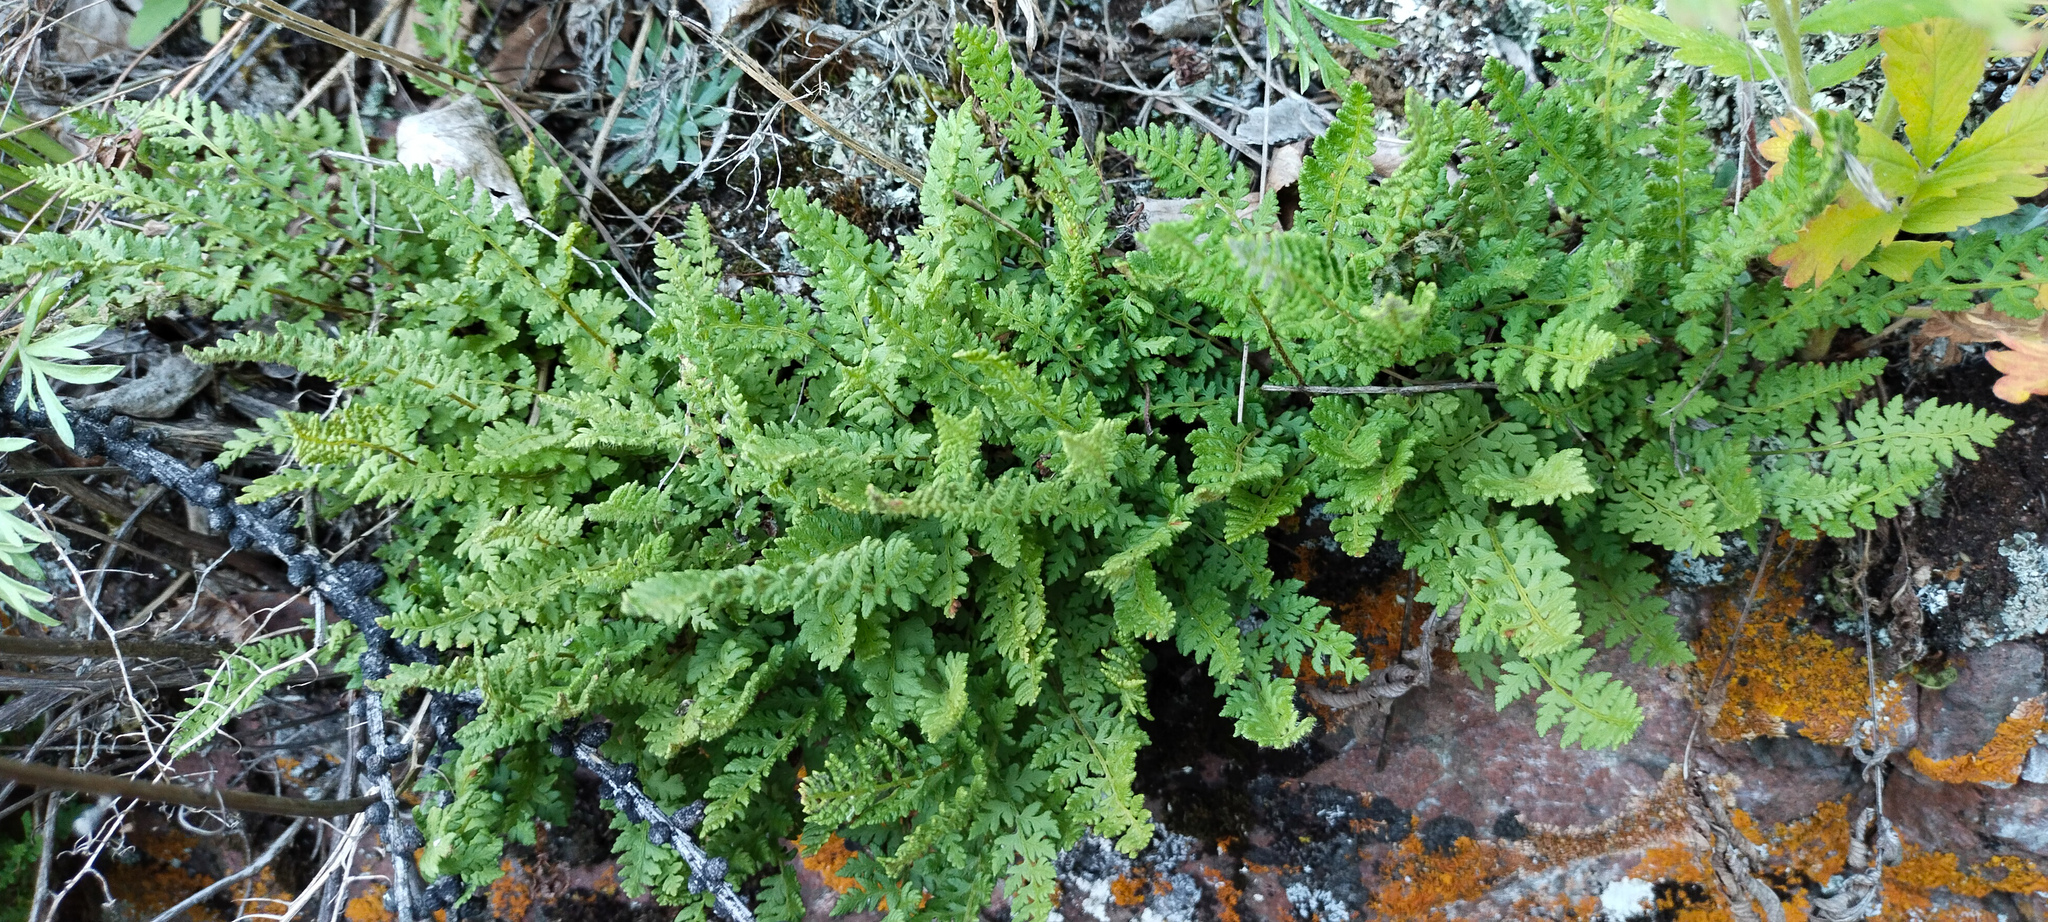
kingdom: Plantae
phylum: Tracheophyta
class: Polypodiopsida
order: Polypodiales
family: Woodsiaceae
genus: Woodsia
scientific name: Woodsia ilvensis
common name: Fragrant woodsia
